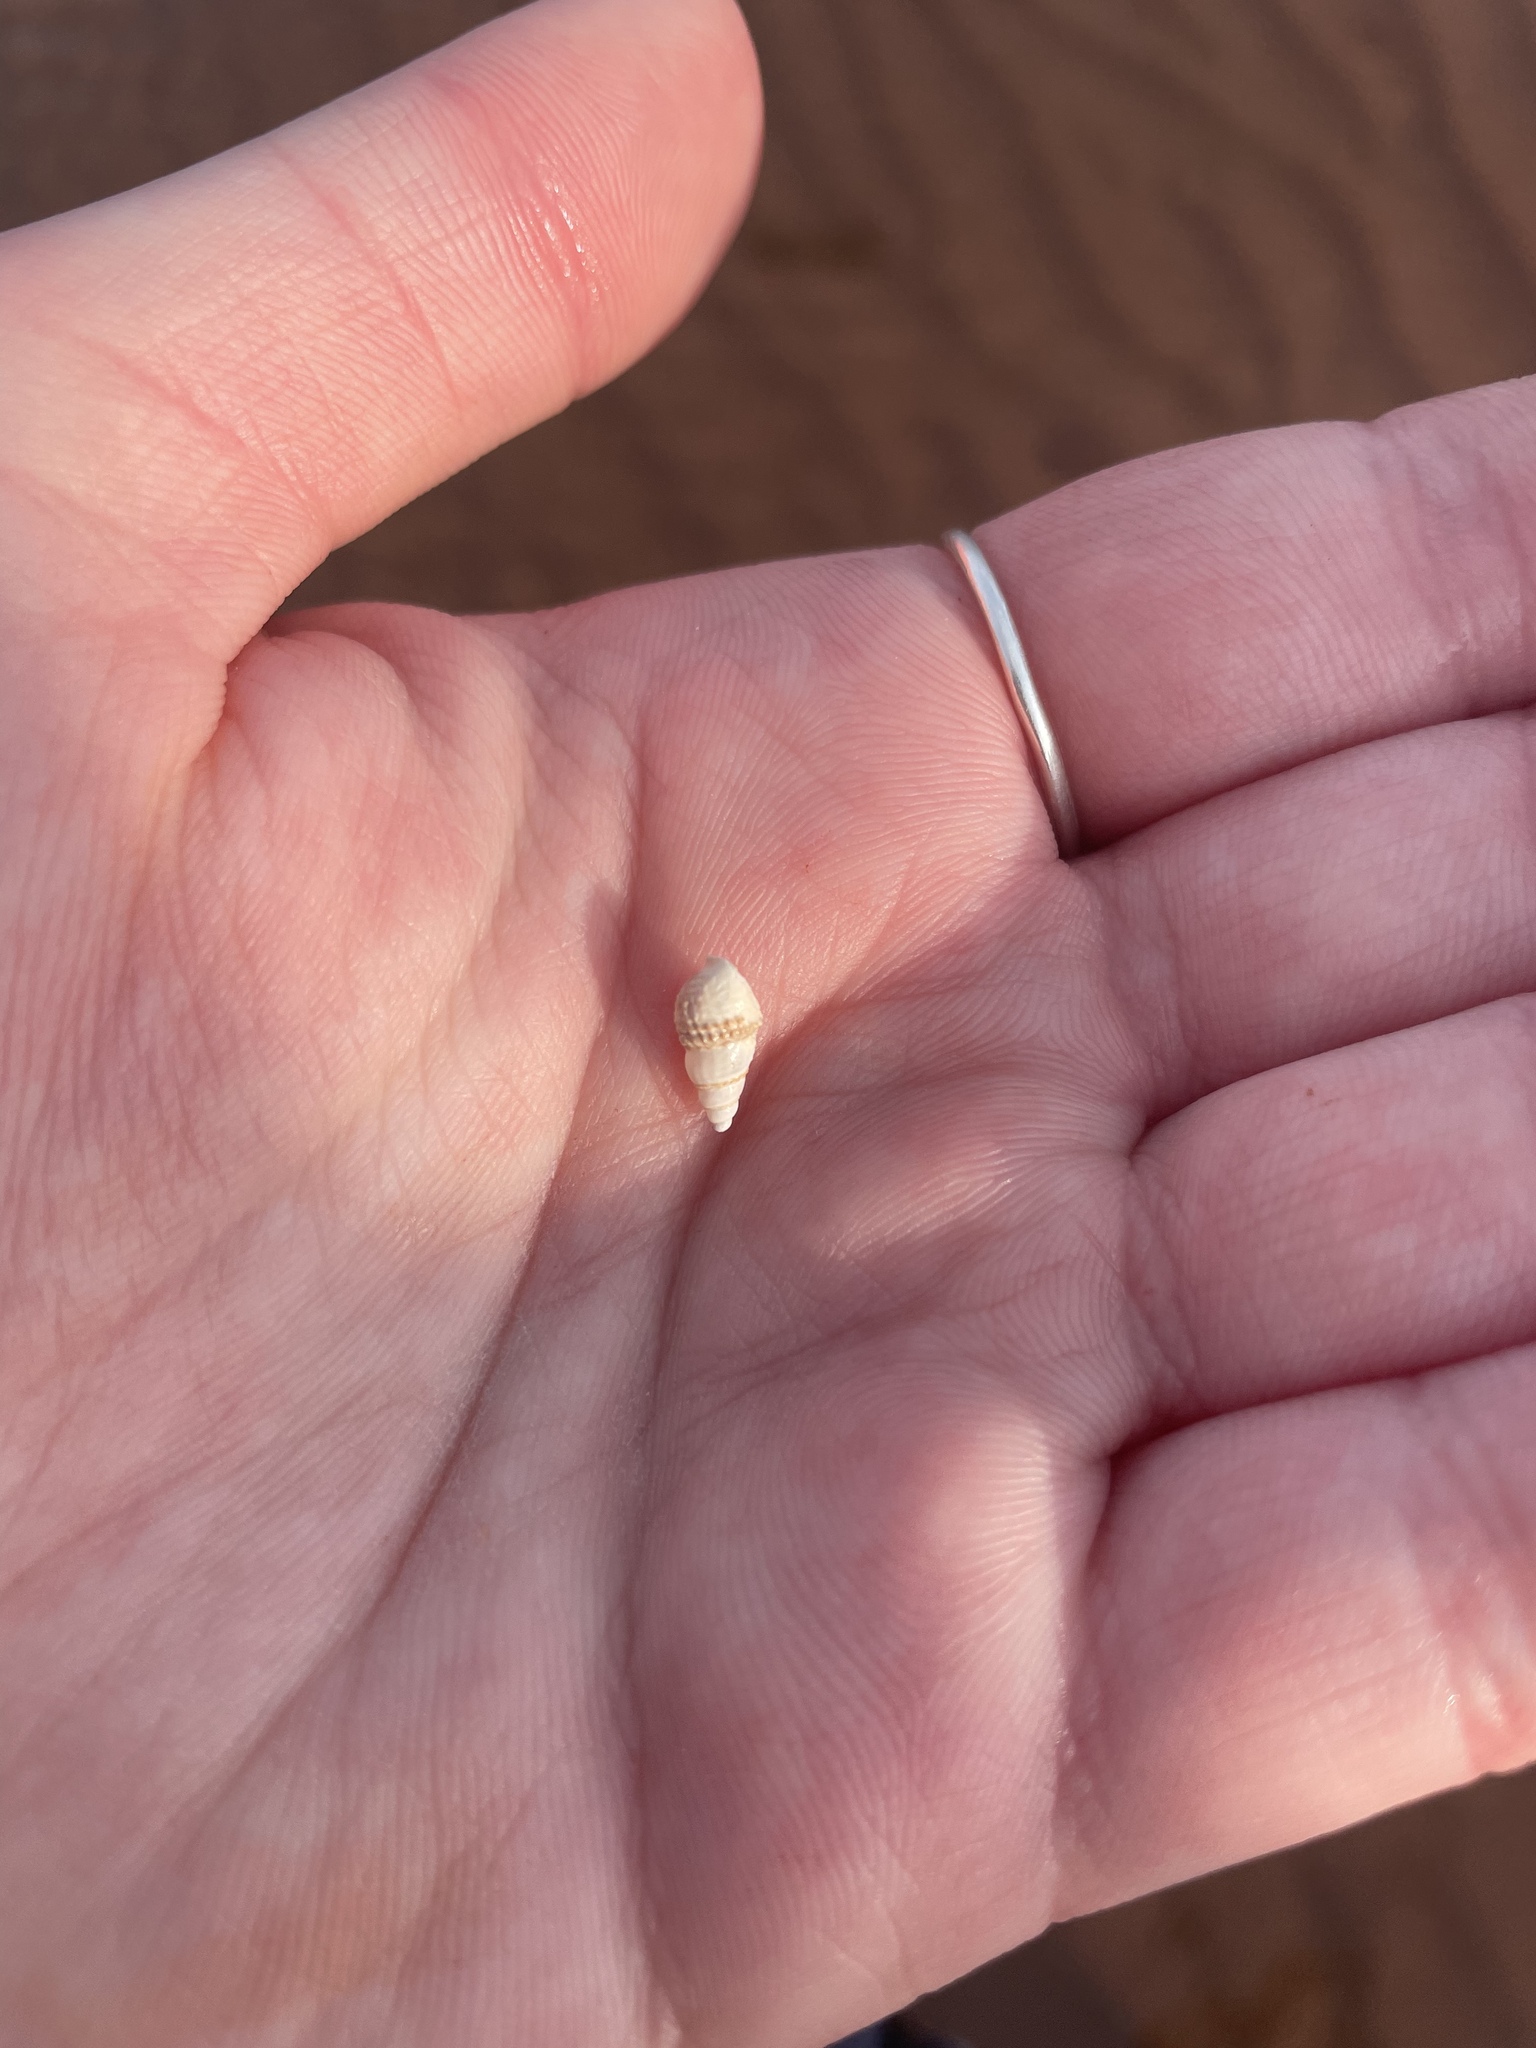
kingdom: Animalia
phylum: Mollusca
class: Gastropoda
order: Neogastropoda
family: Nassariidae
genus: Ilyanassa
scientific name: Ilyanassa trivittata
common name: Three-line mudsnail
